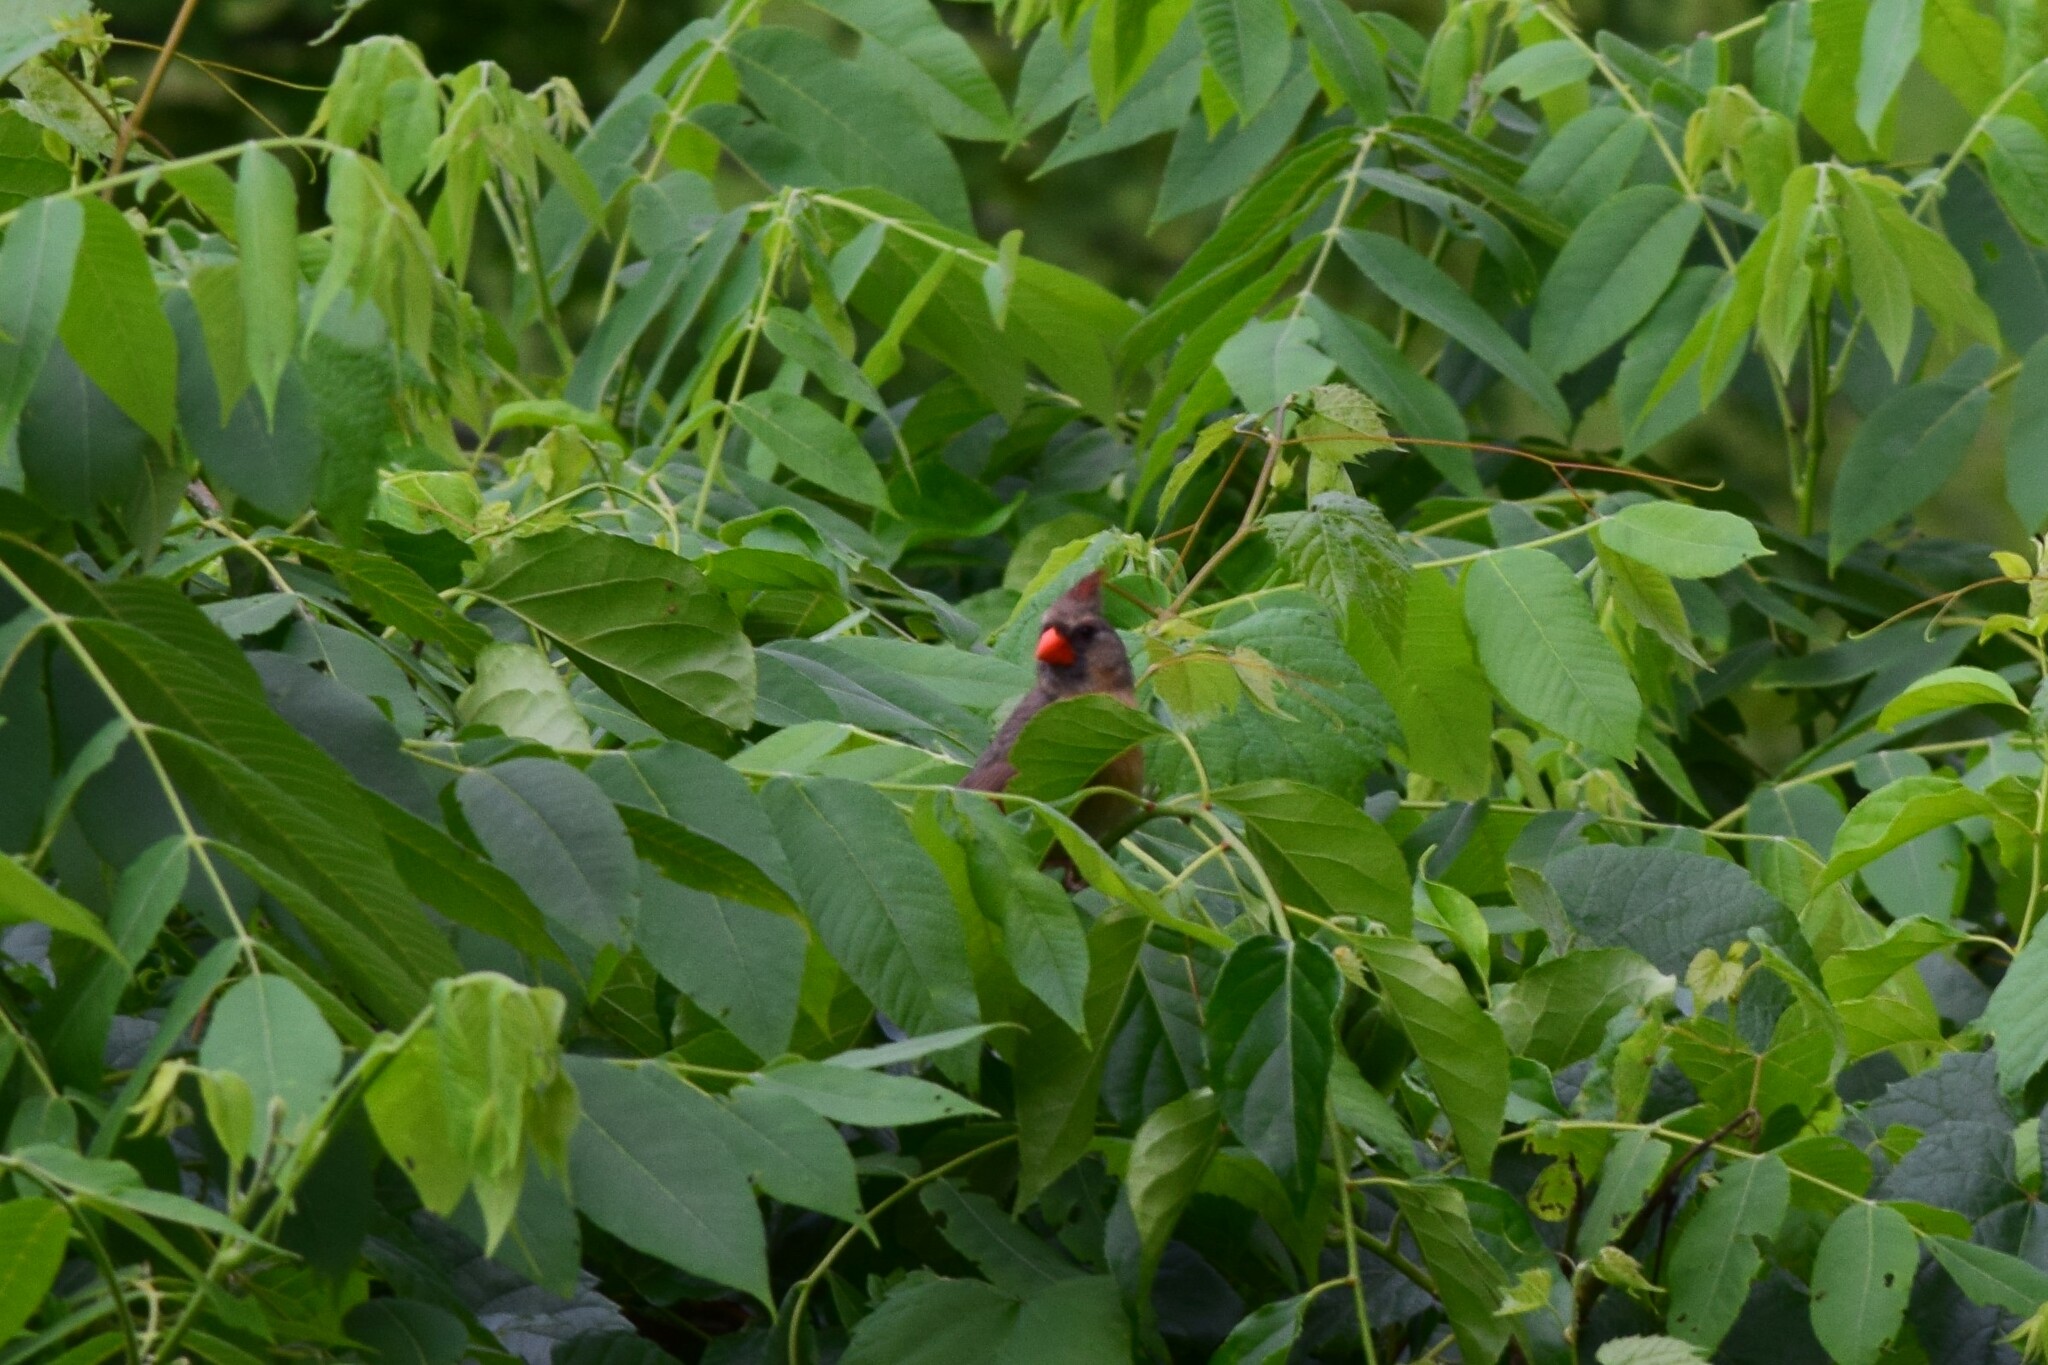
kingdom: Animalia
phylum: Chordata
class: Aves
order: Passeriformes
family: Cardinalidae
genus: Cardinalis
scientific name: Cardinalis cardinalis
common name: Northern cardinal
